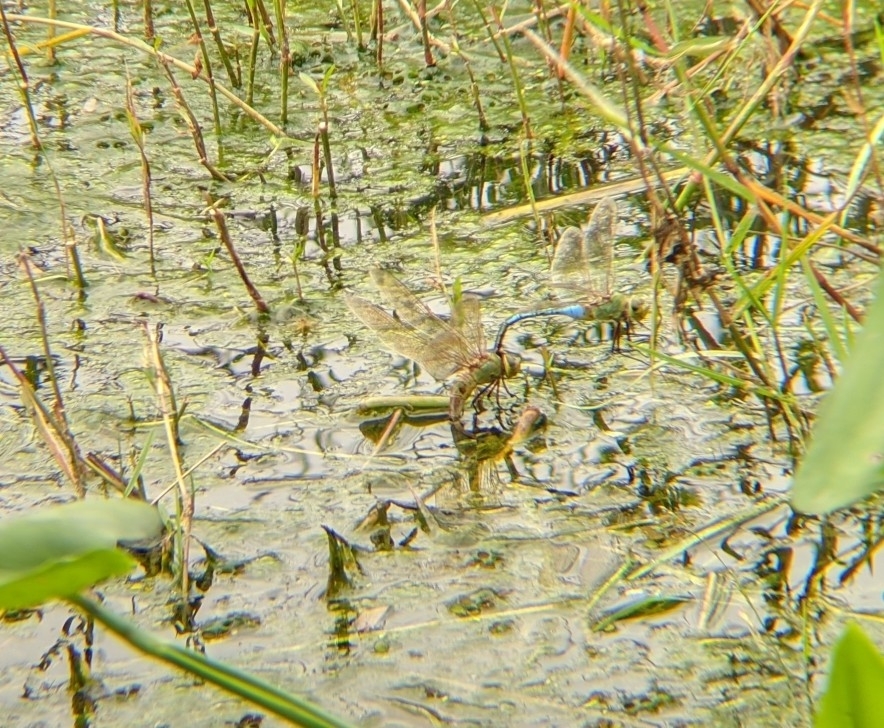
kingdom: Animalia
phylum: Arthropoda
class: Insecta
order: Odonata
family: Aeshnidae
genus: Anax
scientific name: Anax junius
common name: Common green darner
